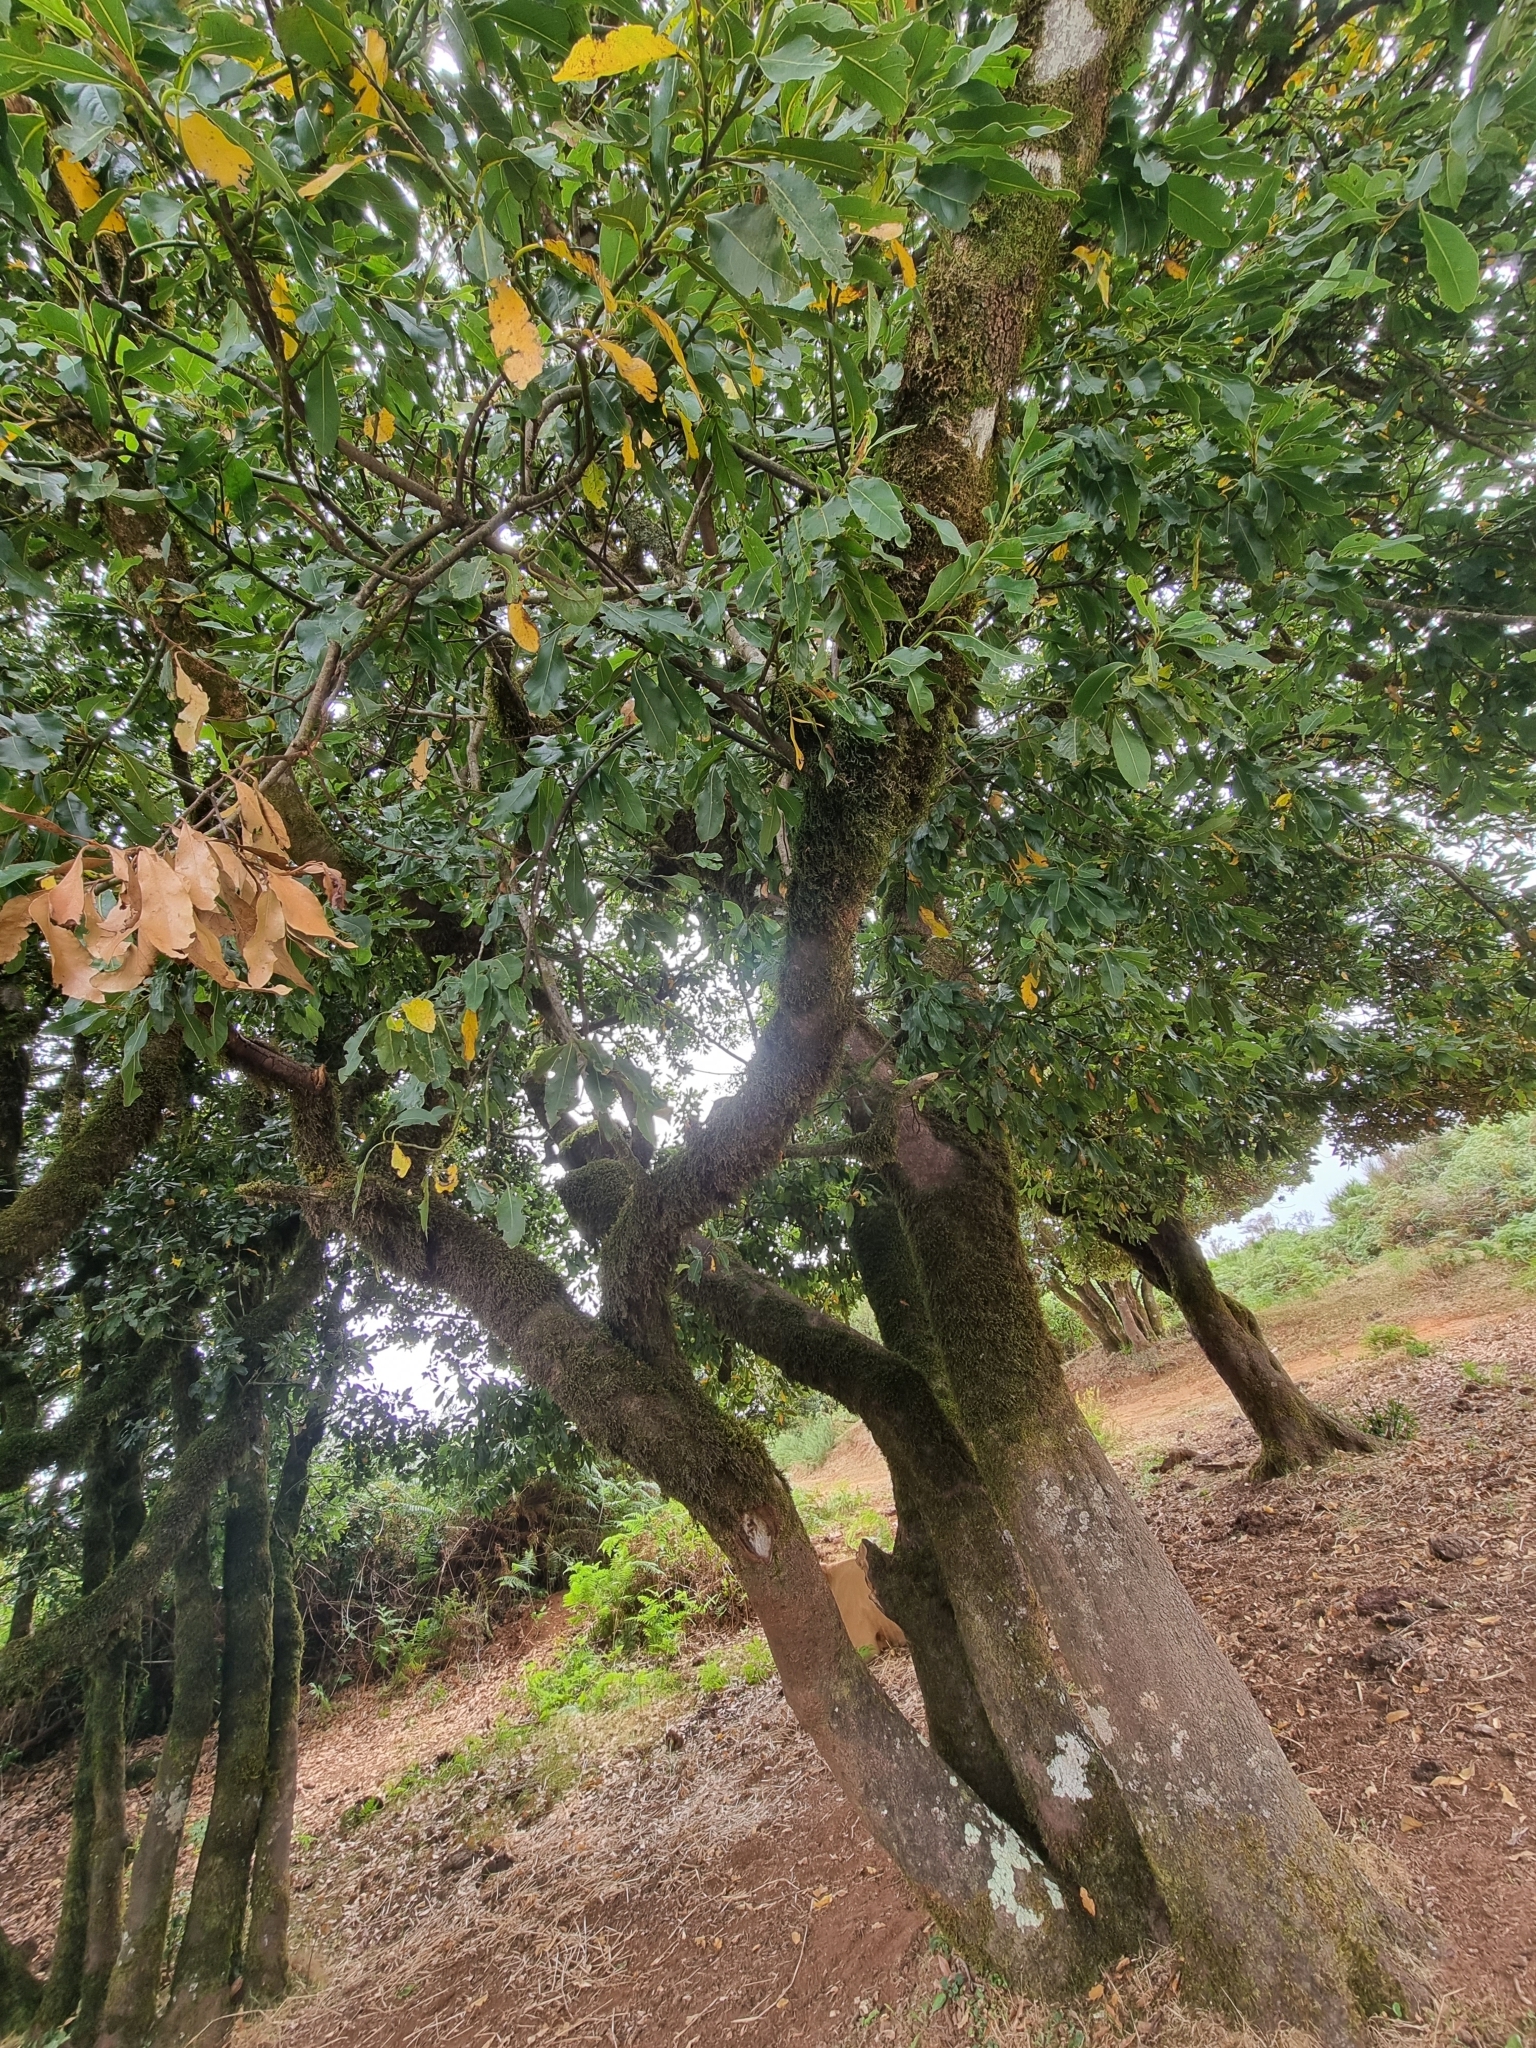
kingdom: Plantae
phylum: Tracheophyta
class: Magnoliopsida
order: Laurales
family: Lauraceae
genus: Laurus
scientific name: Laurus novocanariensis
